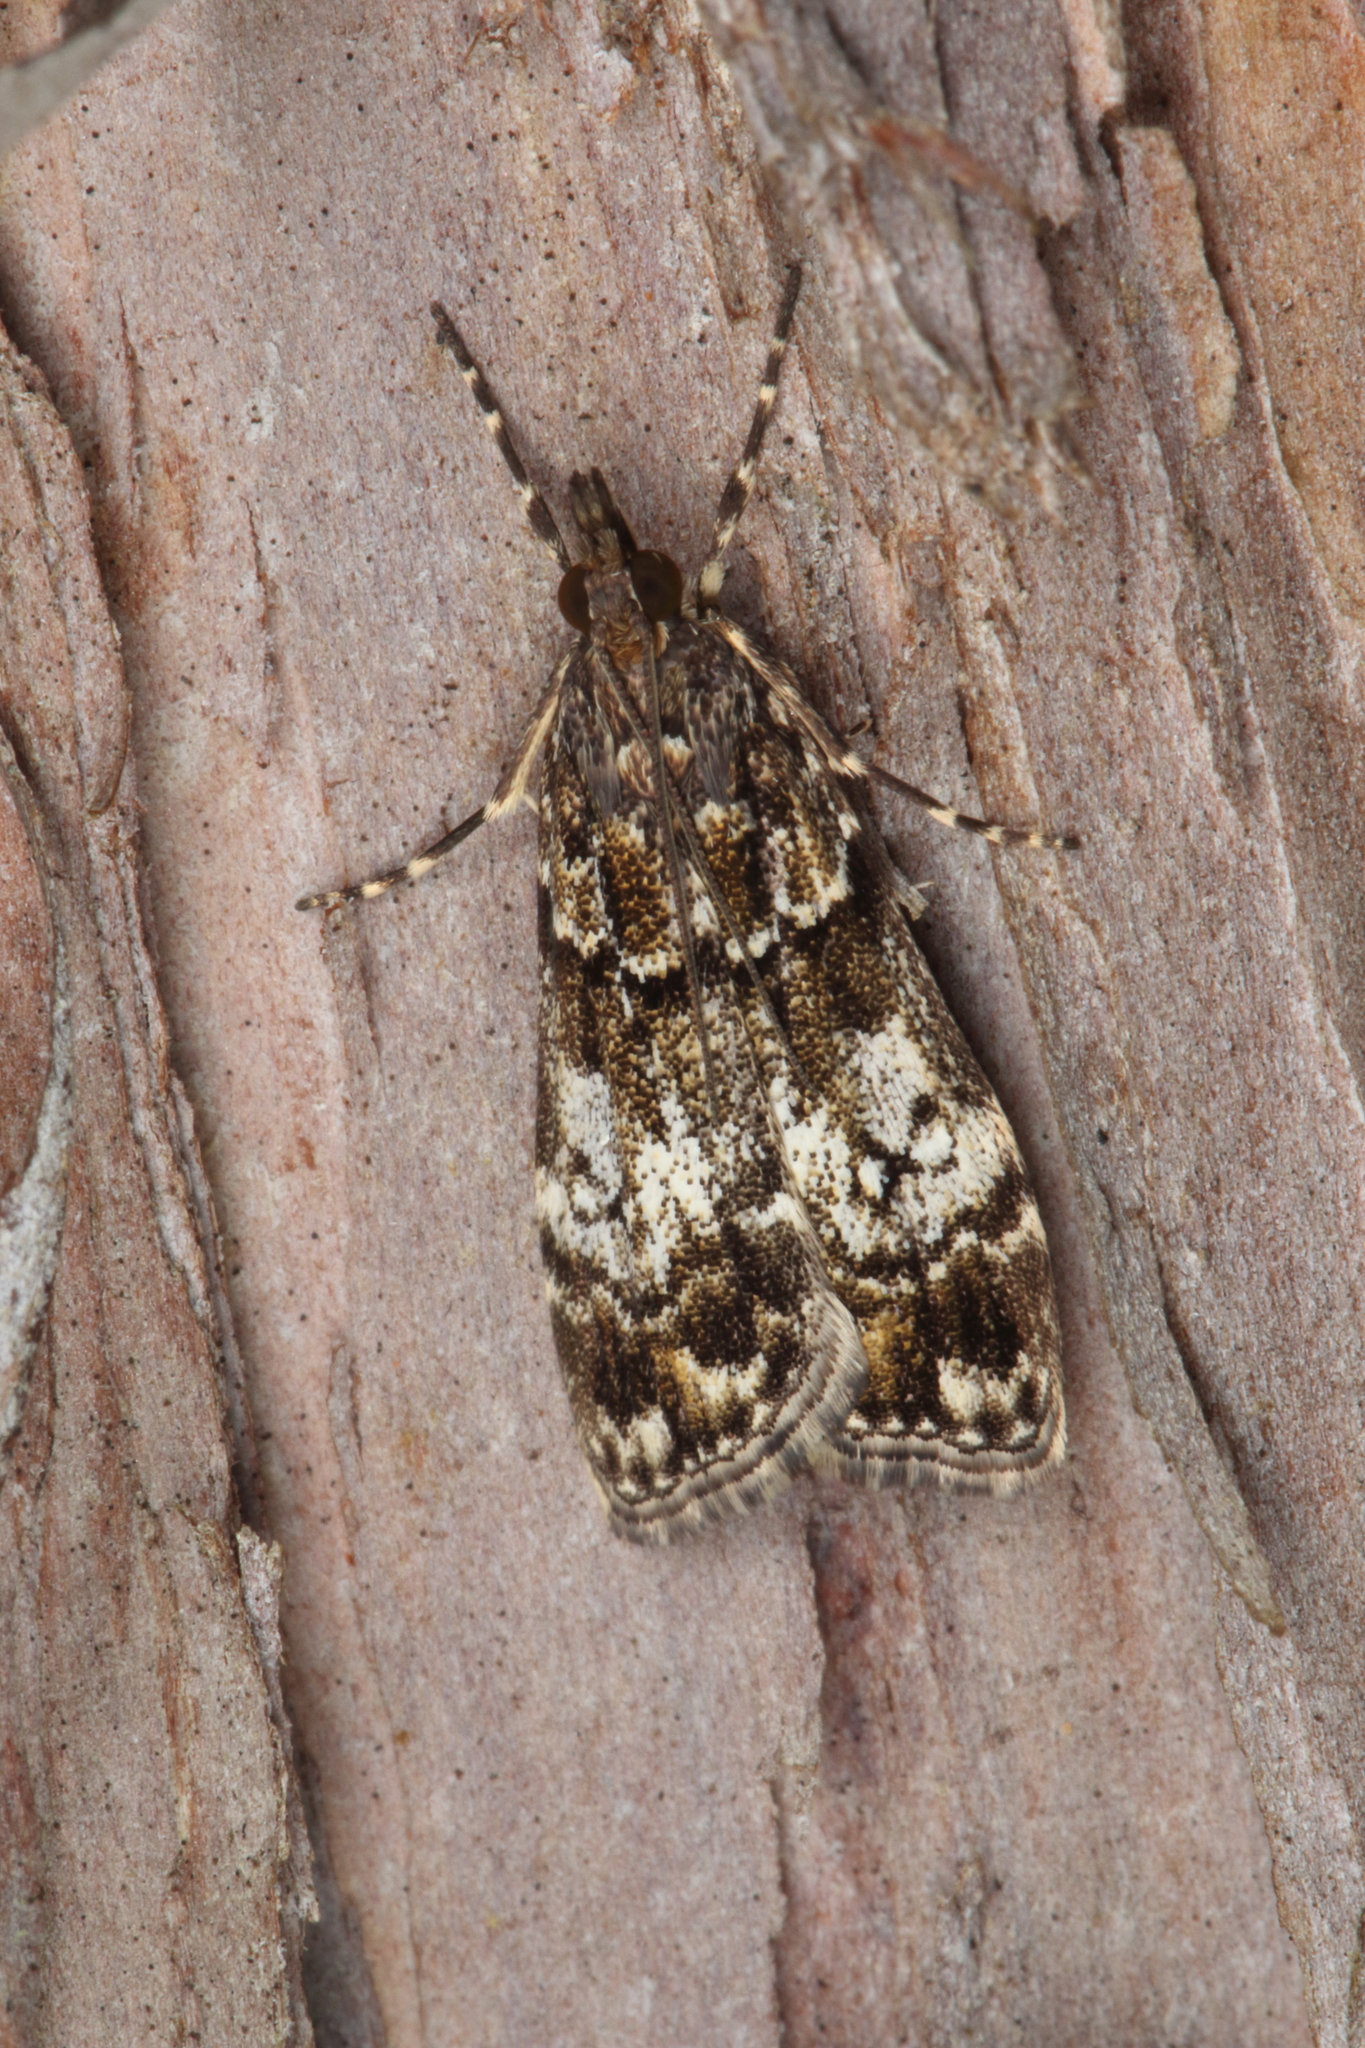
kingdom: Animalia
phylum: Arthropoda
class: Insecta
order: Lepidoptera
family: Crambidae
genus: Eudonia
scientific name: Eudonia dinodes
